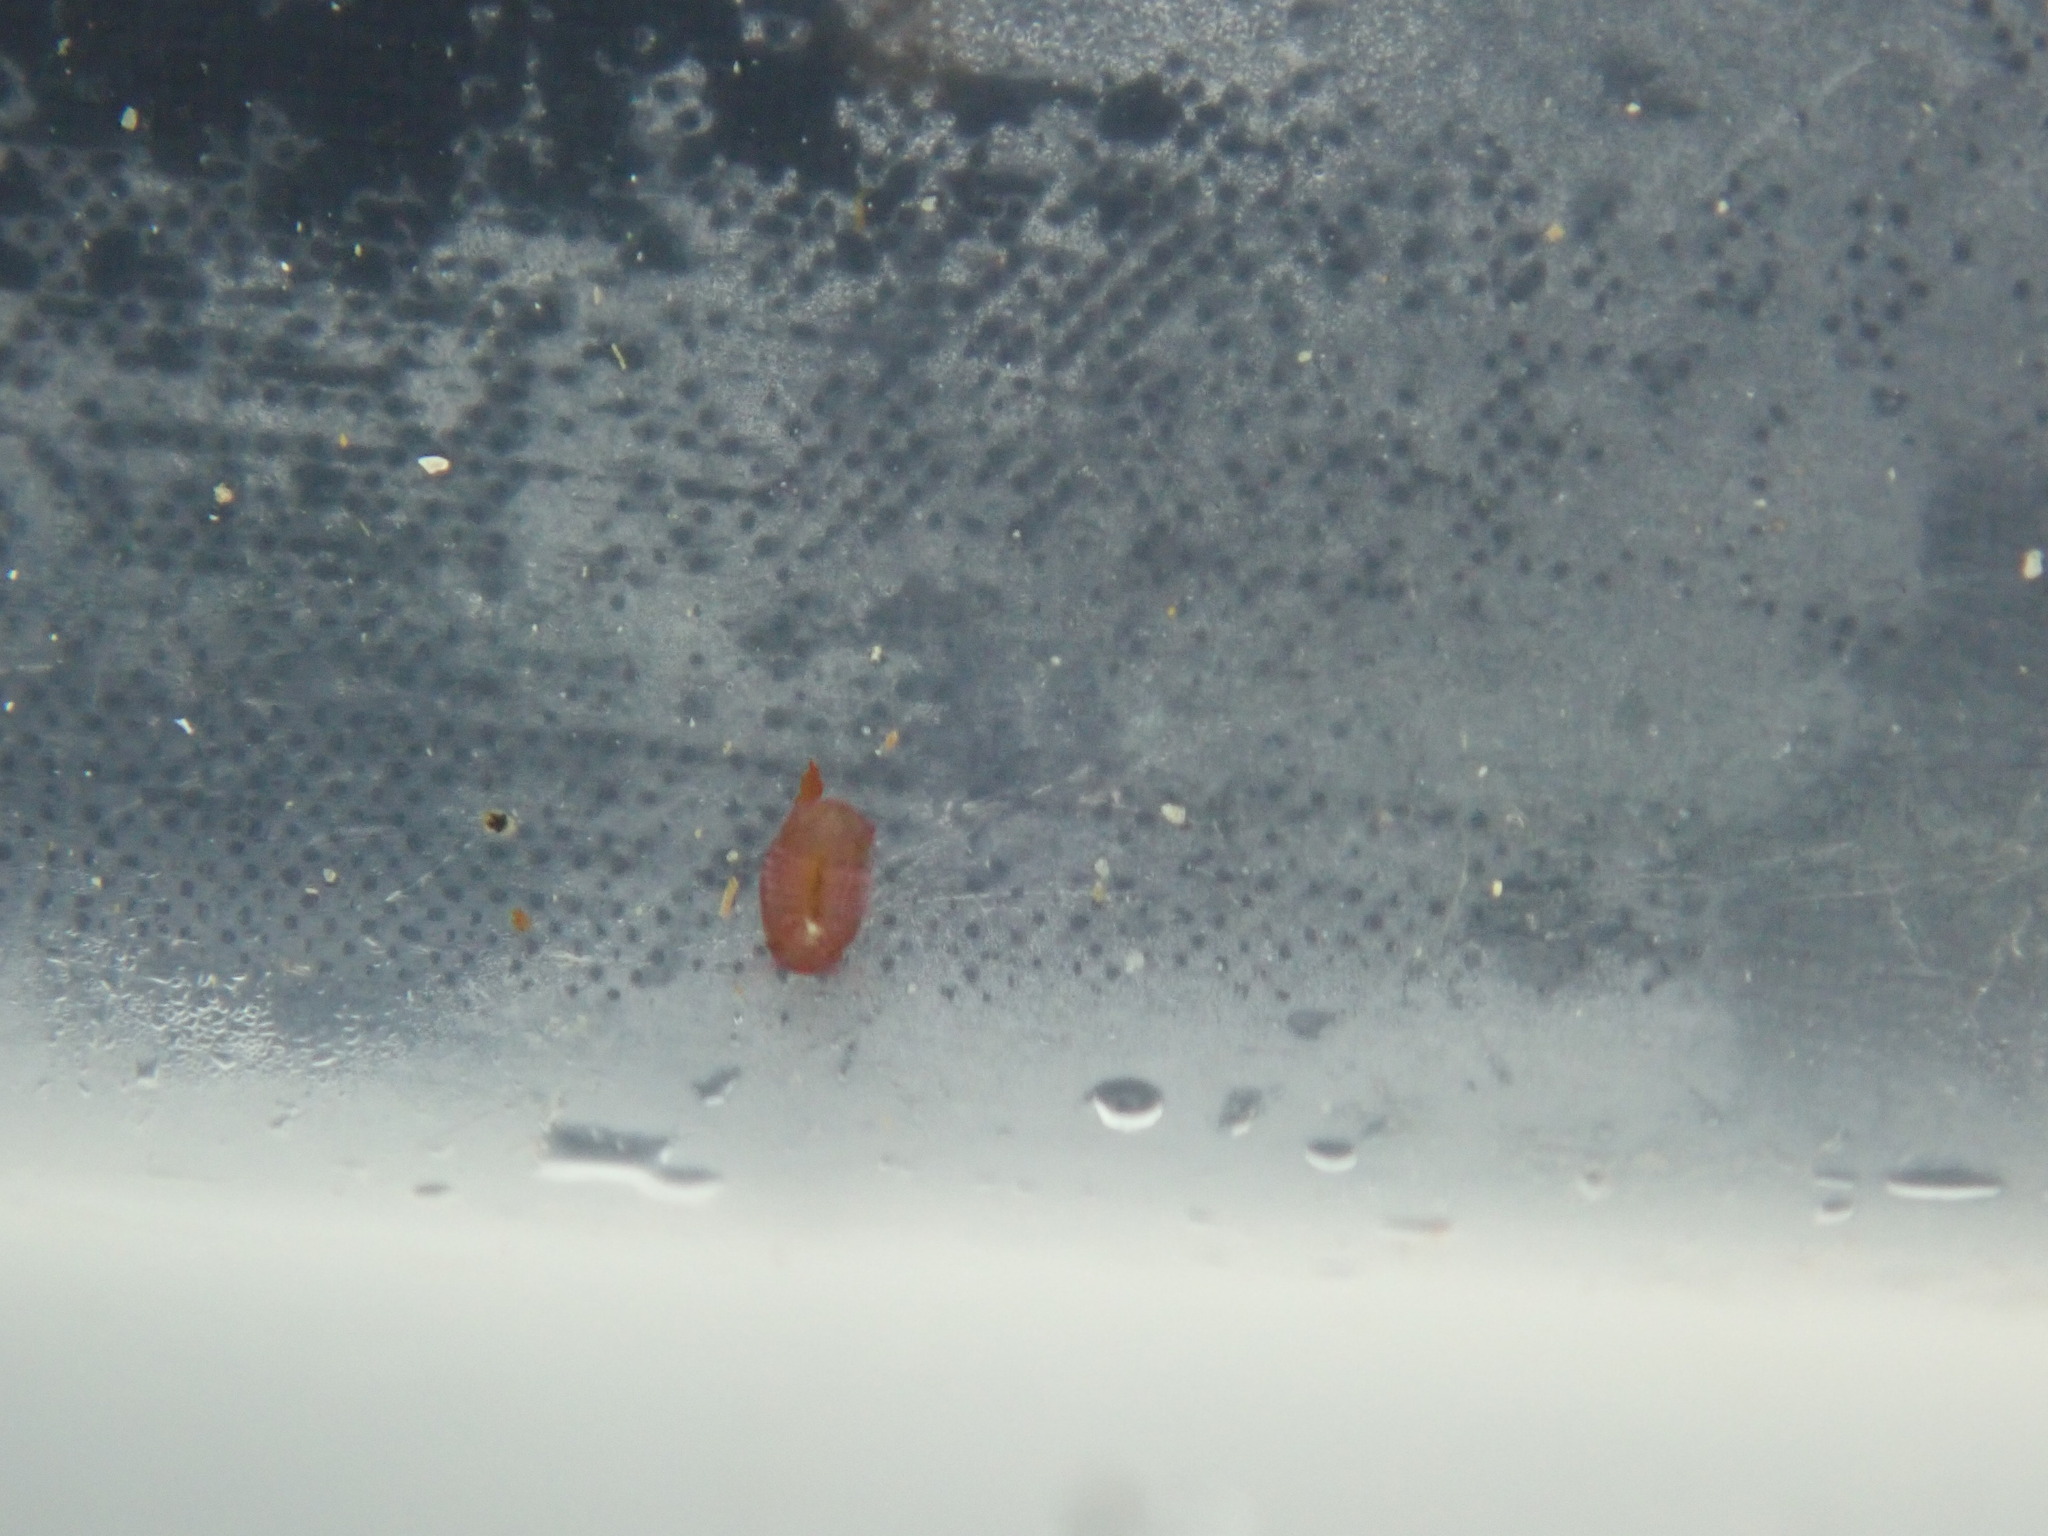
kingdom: Animalia
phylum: Arthropoda
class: Malacostraca
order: Isopoda
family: Sphaeromatidae
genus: Dynamene
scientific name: Dynamene bidentata
